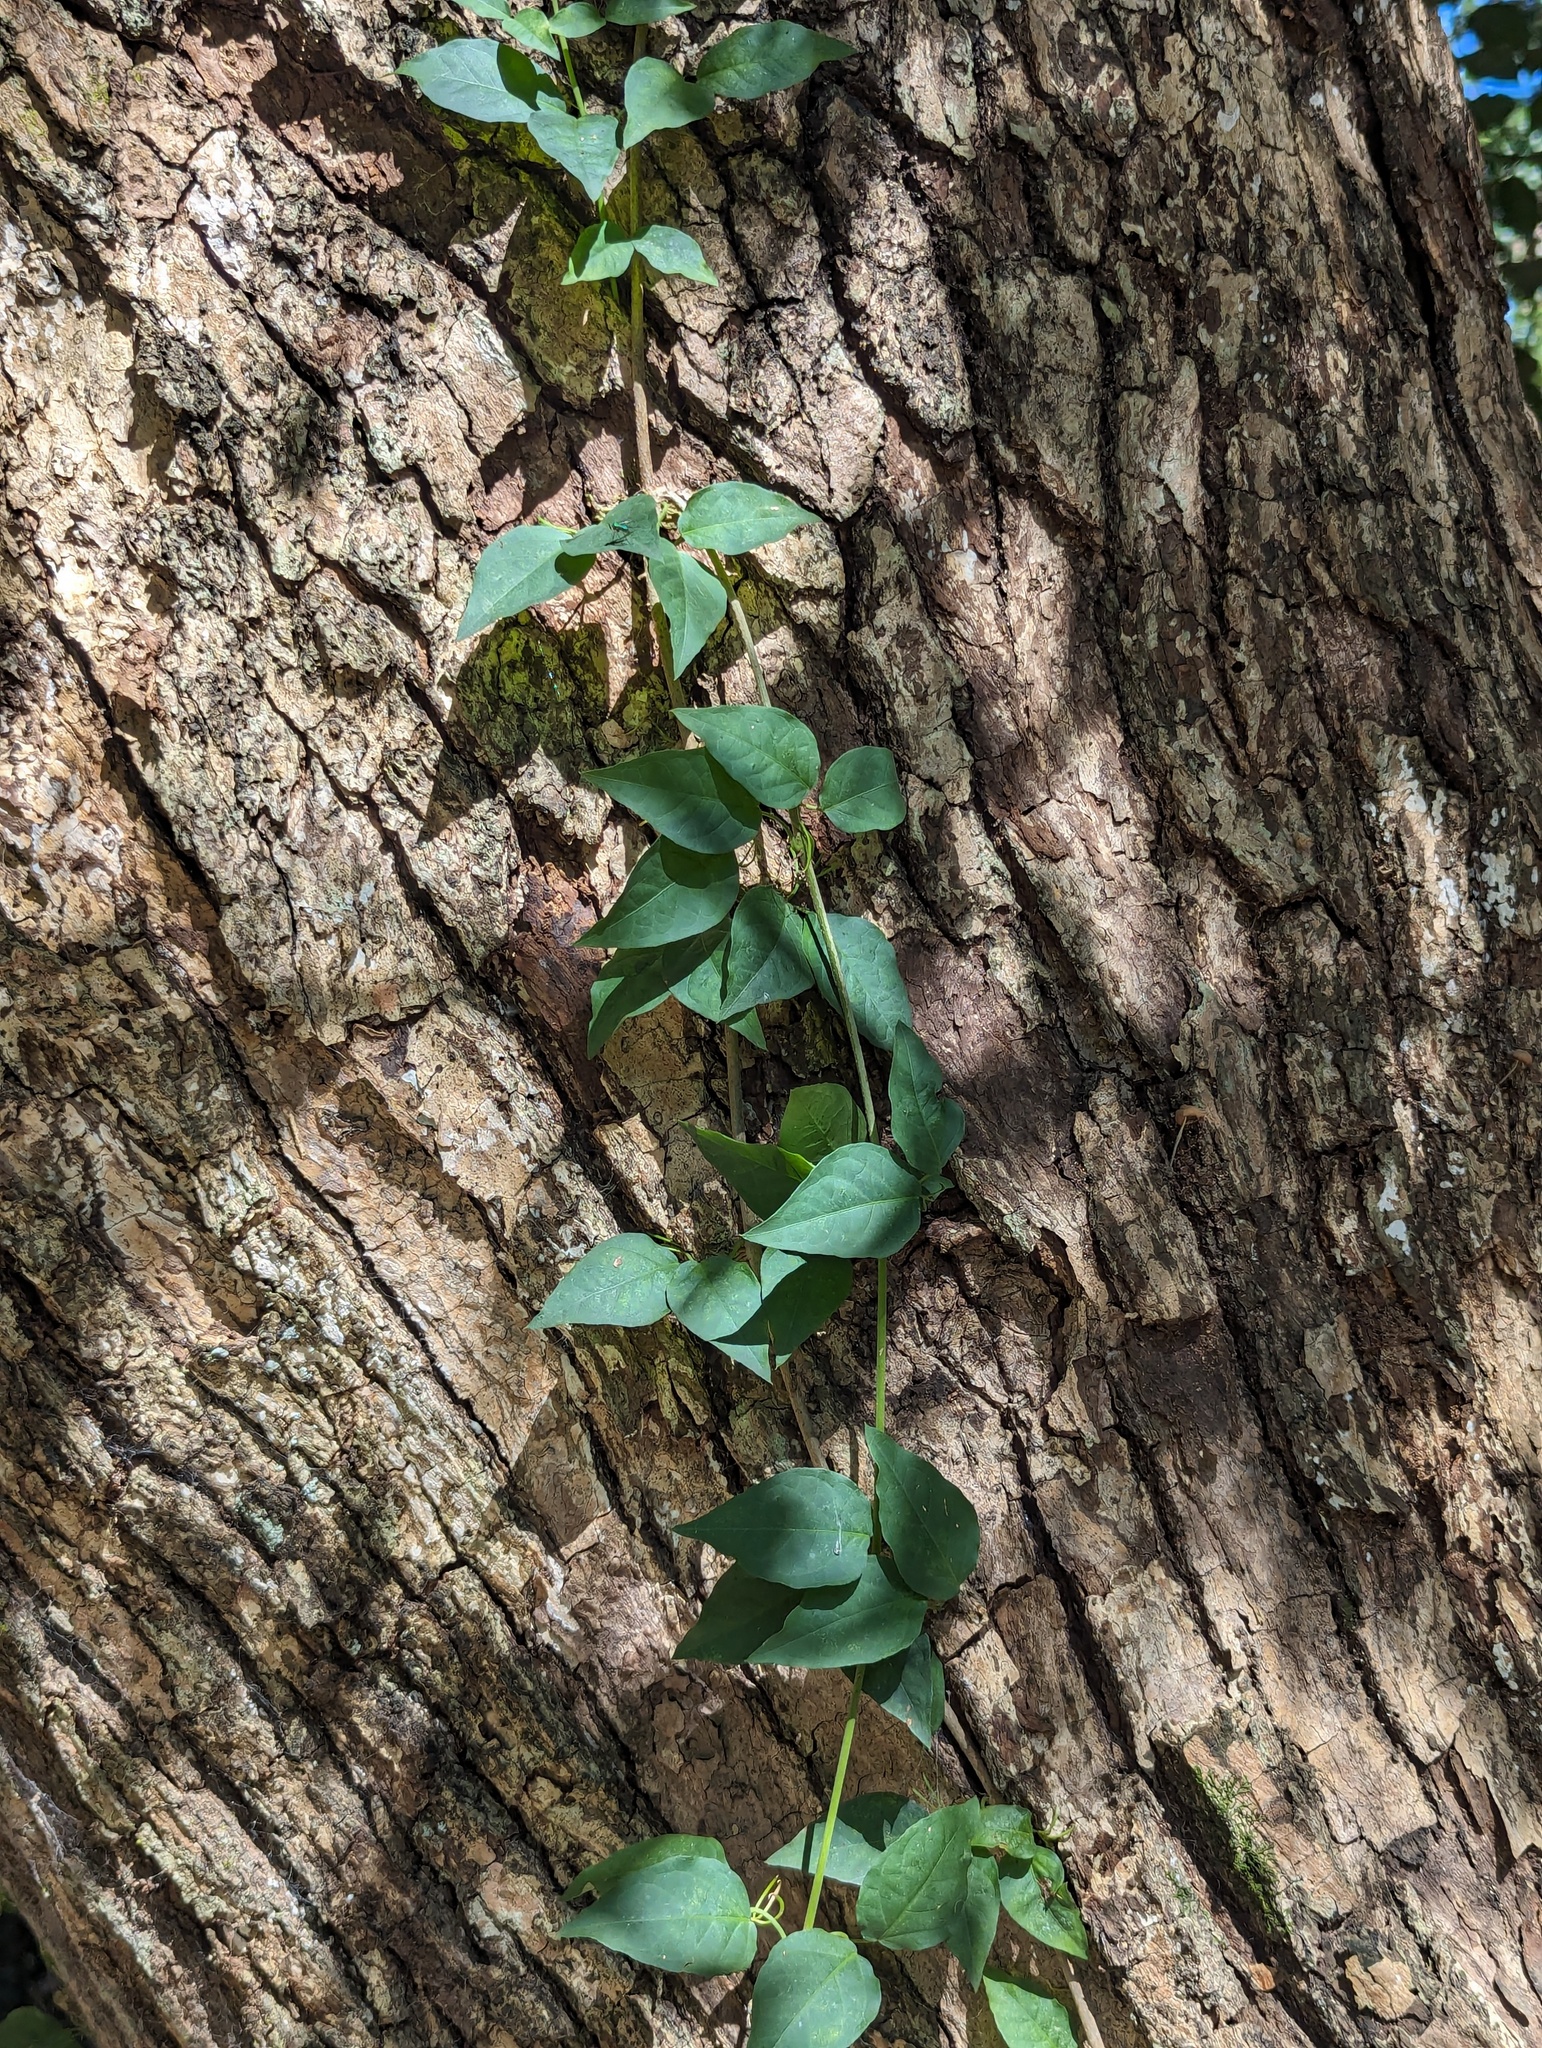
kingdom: Plantae
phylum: Tracheophyta
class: Magnoliopsida
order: Lamiales
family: Bignoniaceae
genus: Dolichandra
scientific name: Dolichandra unguis-cati
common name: Catclaw vine
